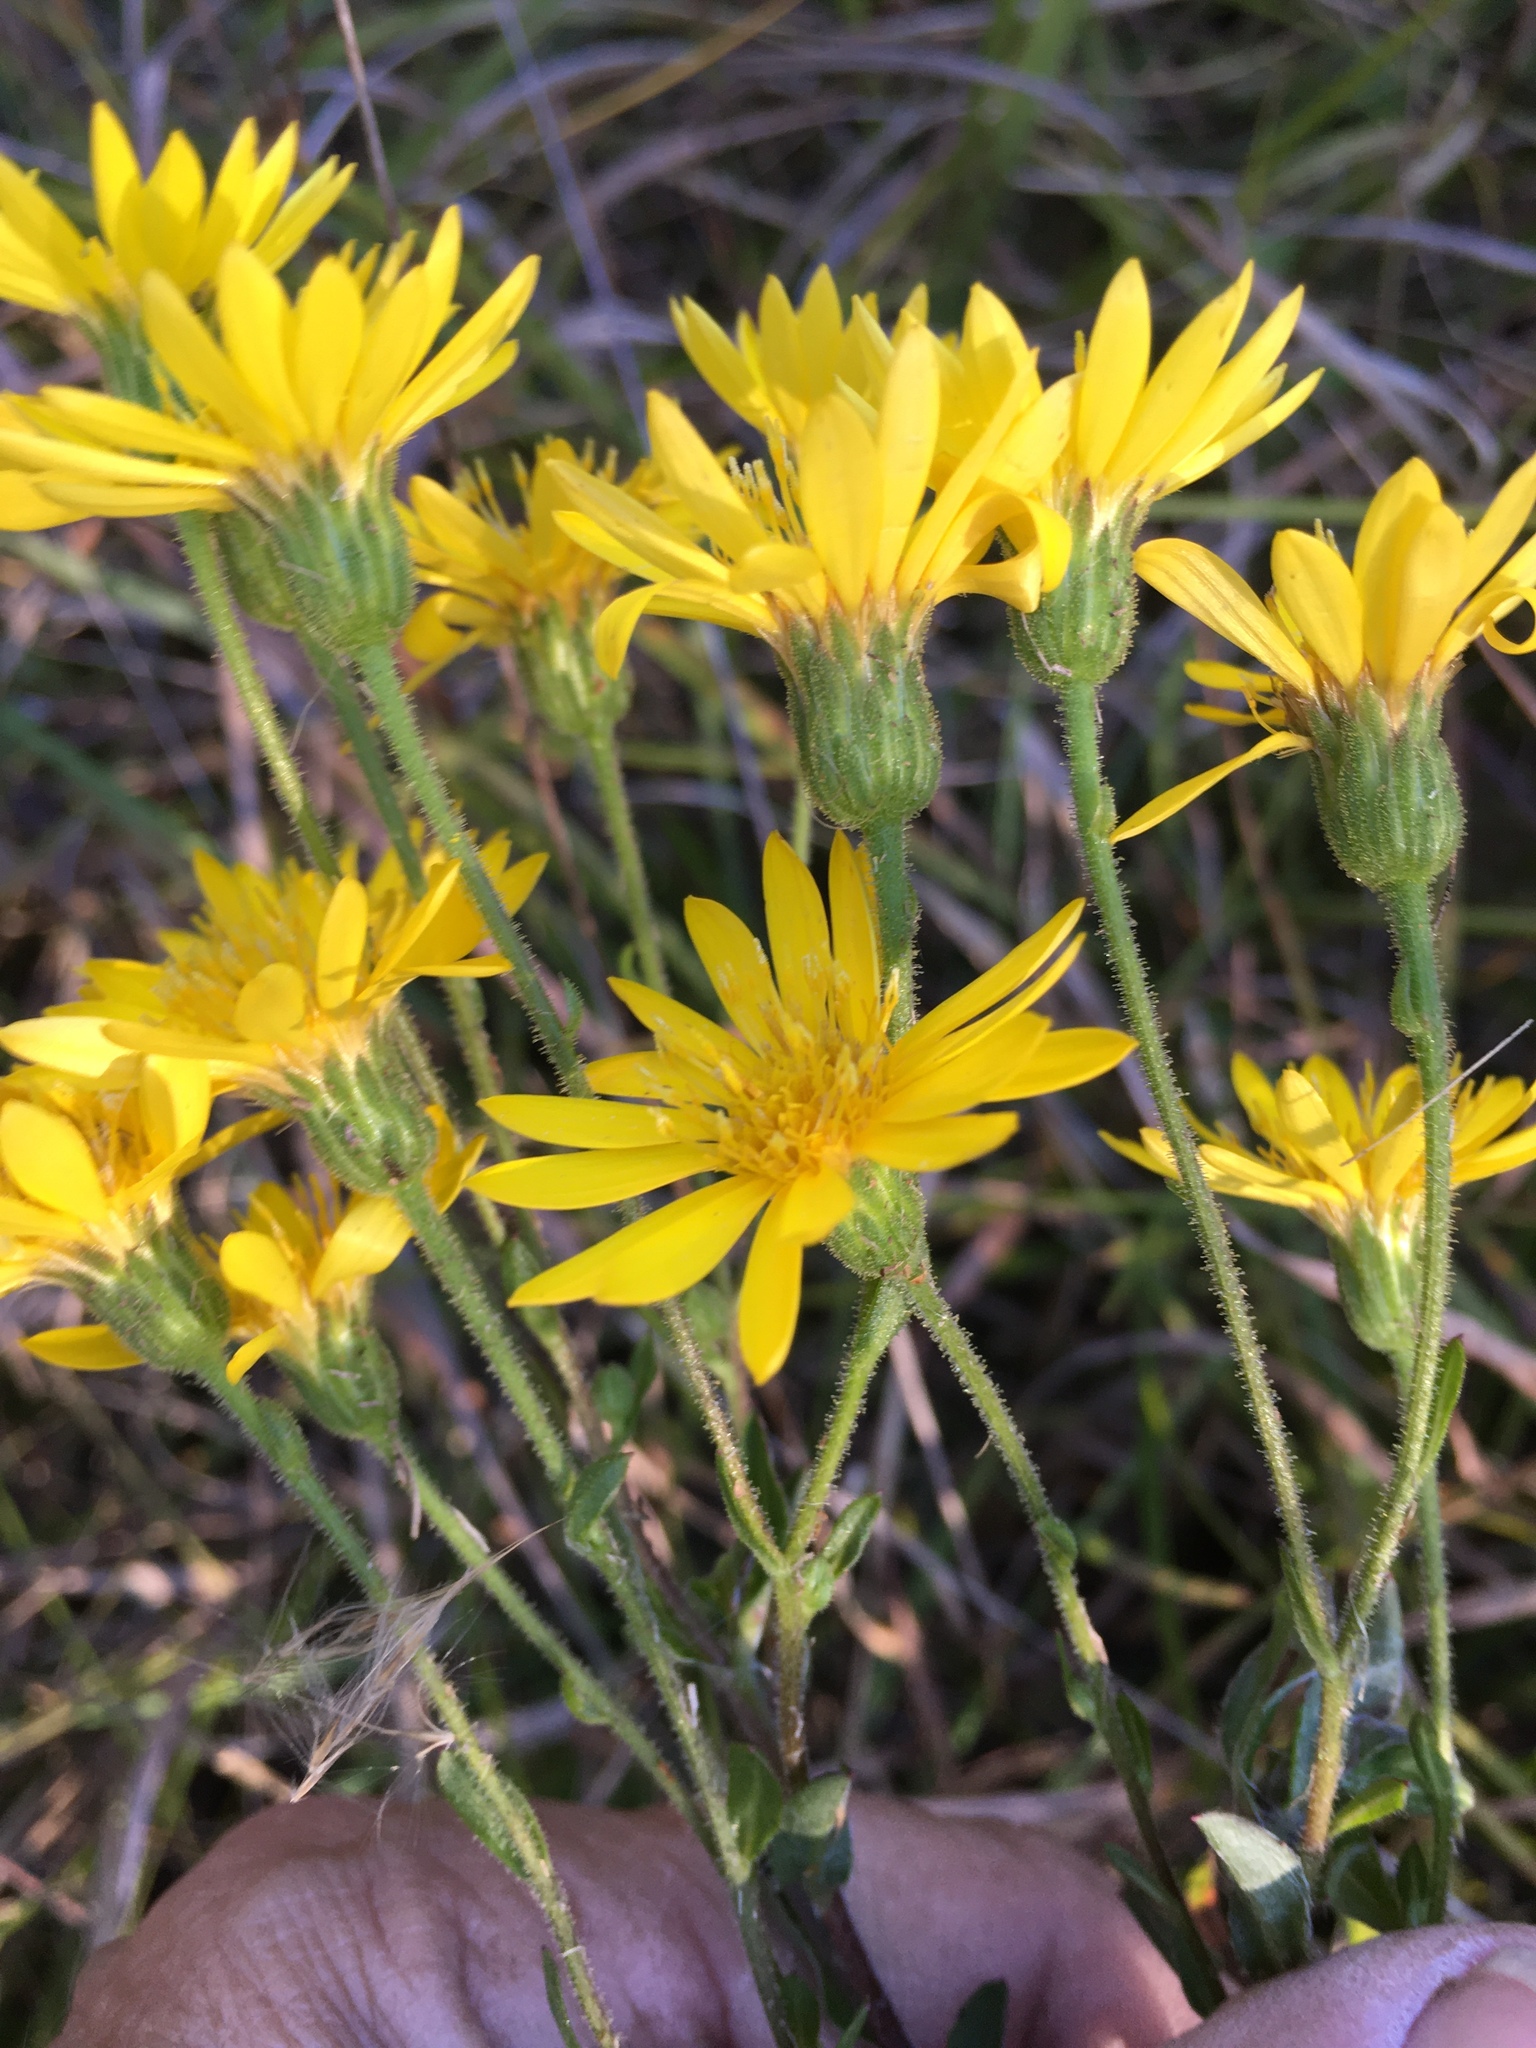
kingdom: Plantae
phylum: Tracheophyta
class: Magnoliopsida
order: Asterales
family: Asteraceae
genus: Chrysopsis
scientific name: Chrysopsis mariana
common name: Maryland golden-aster
